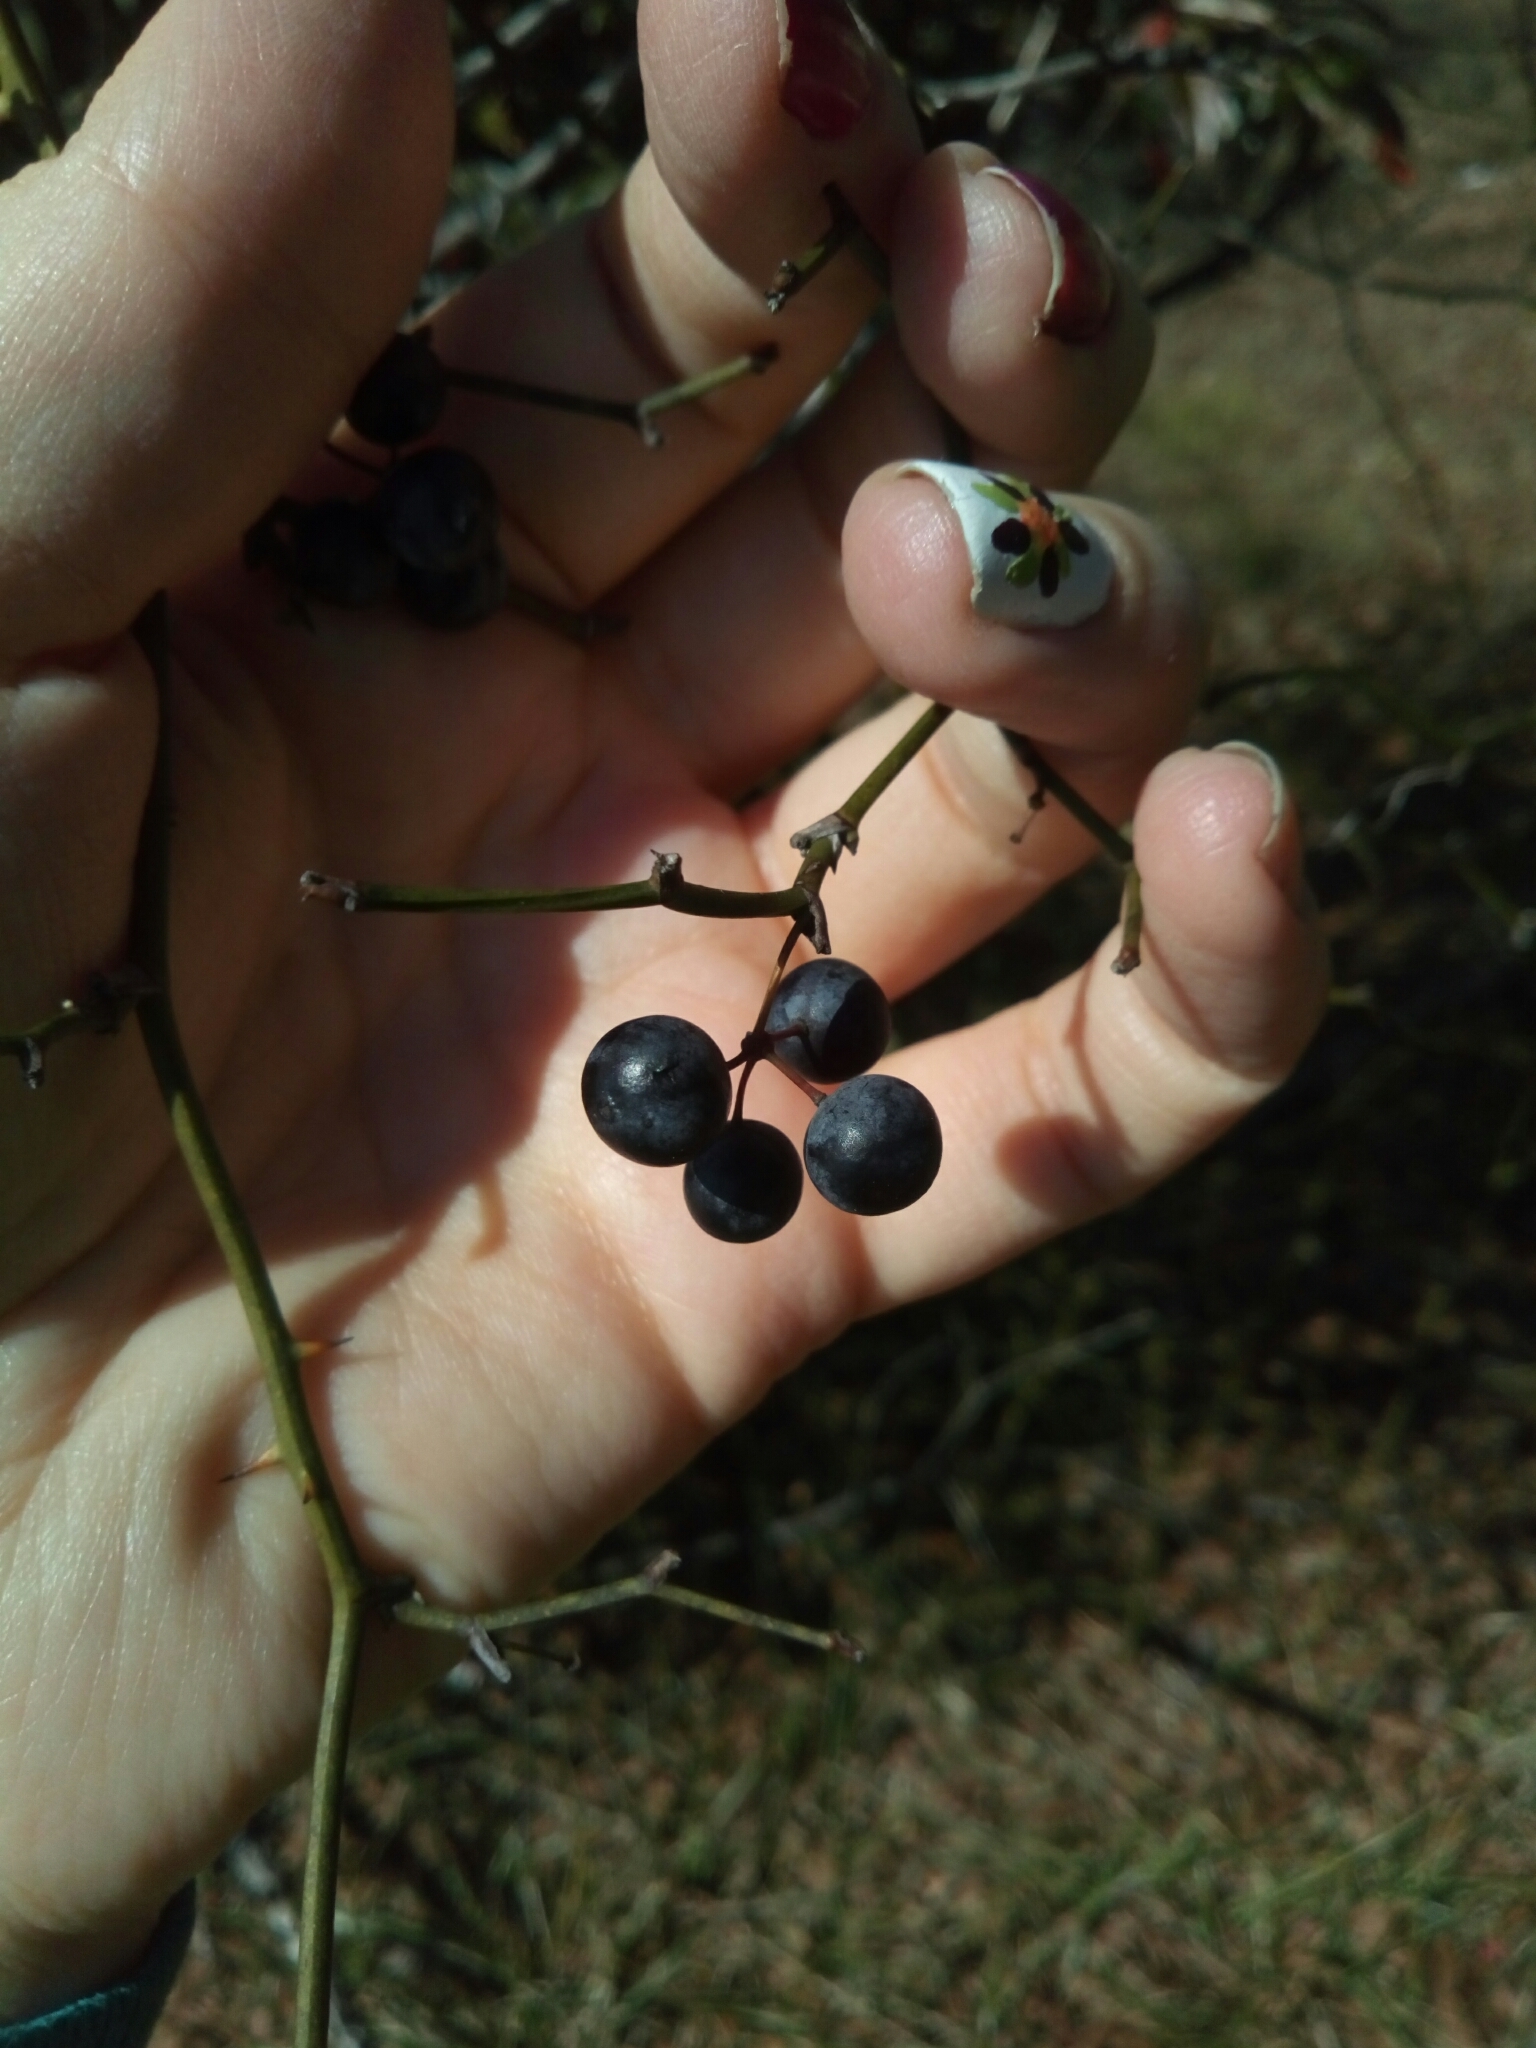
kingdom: Plantae
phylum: Tracheophyta
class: Liliopsida
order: Liliales
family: Smilacaceae
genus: Smilax
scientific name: Smilax rotundifolia
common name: Bullbriar
